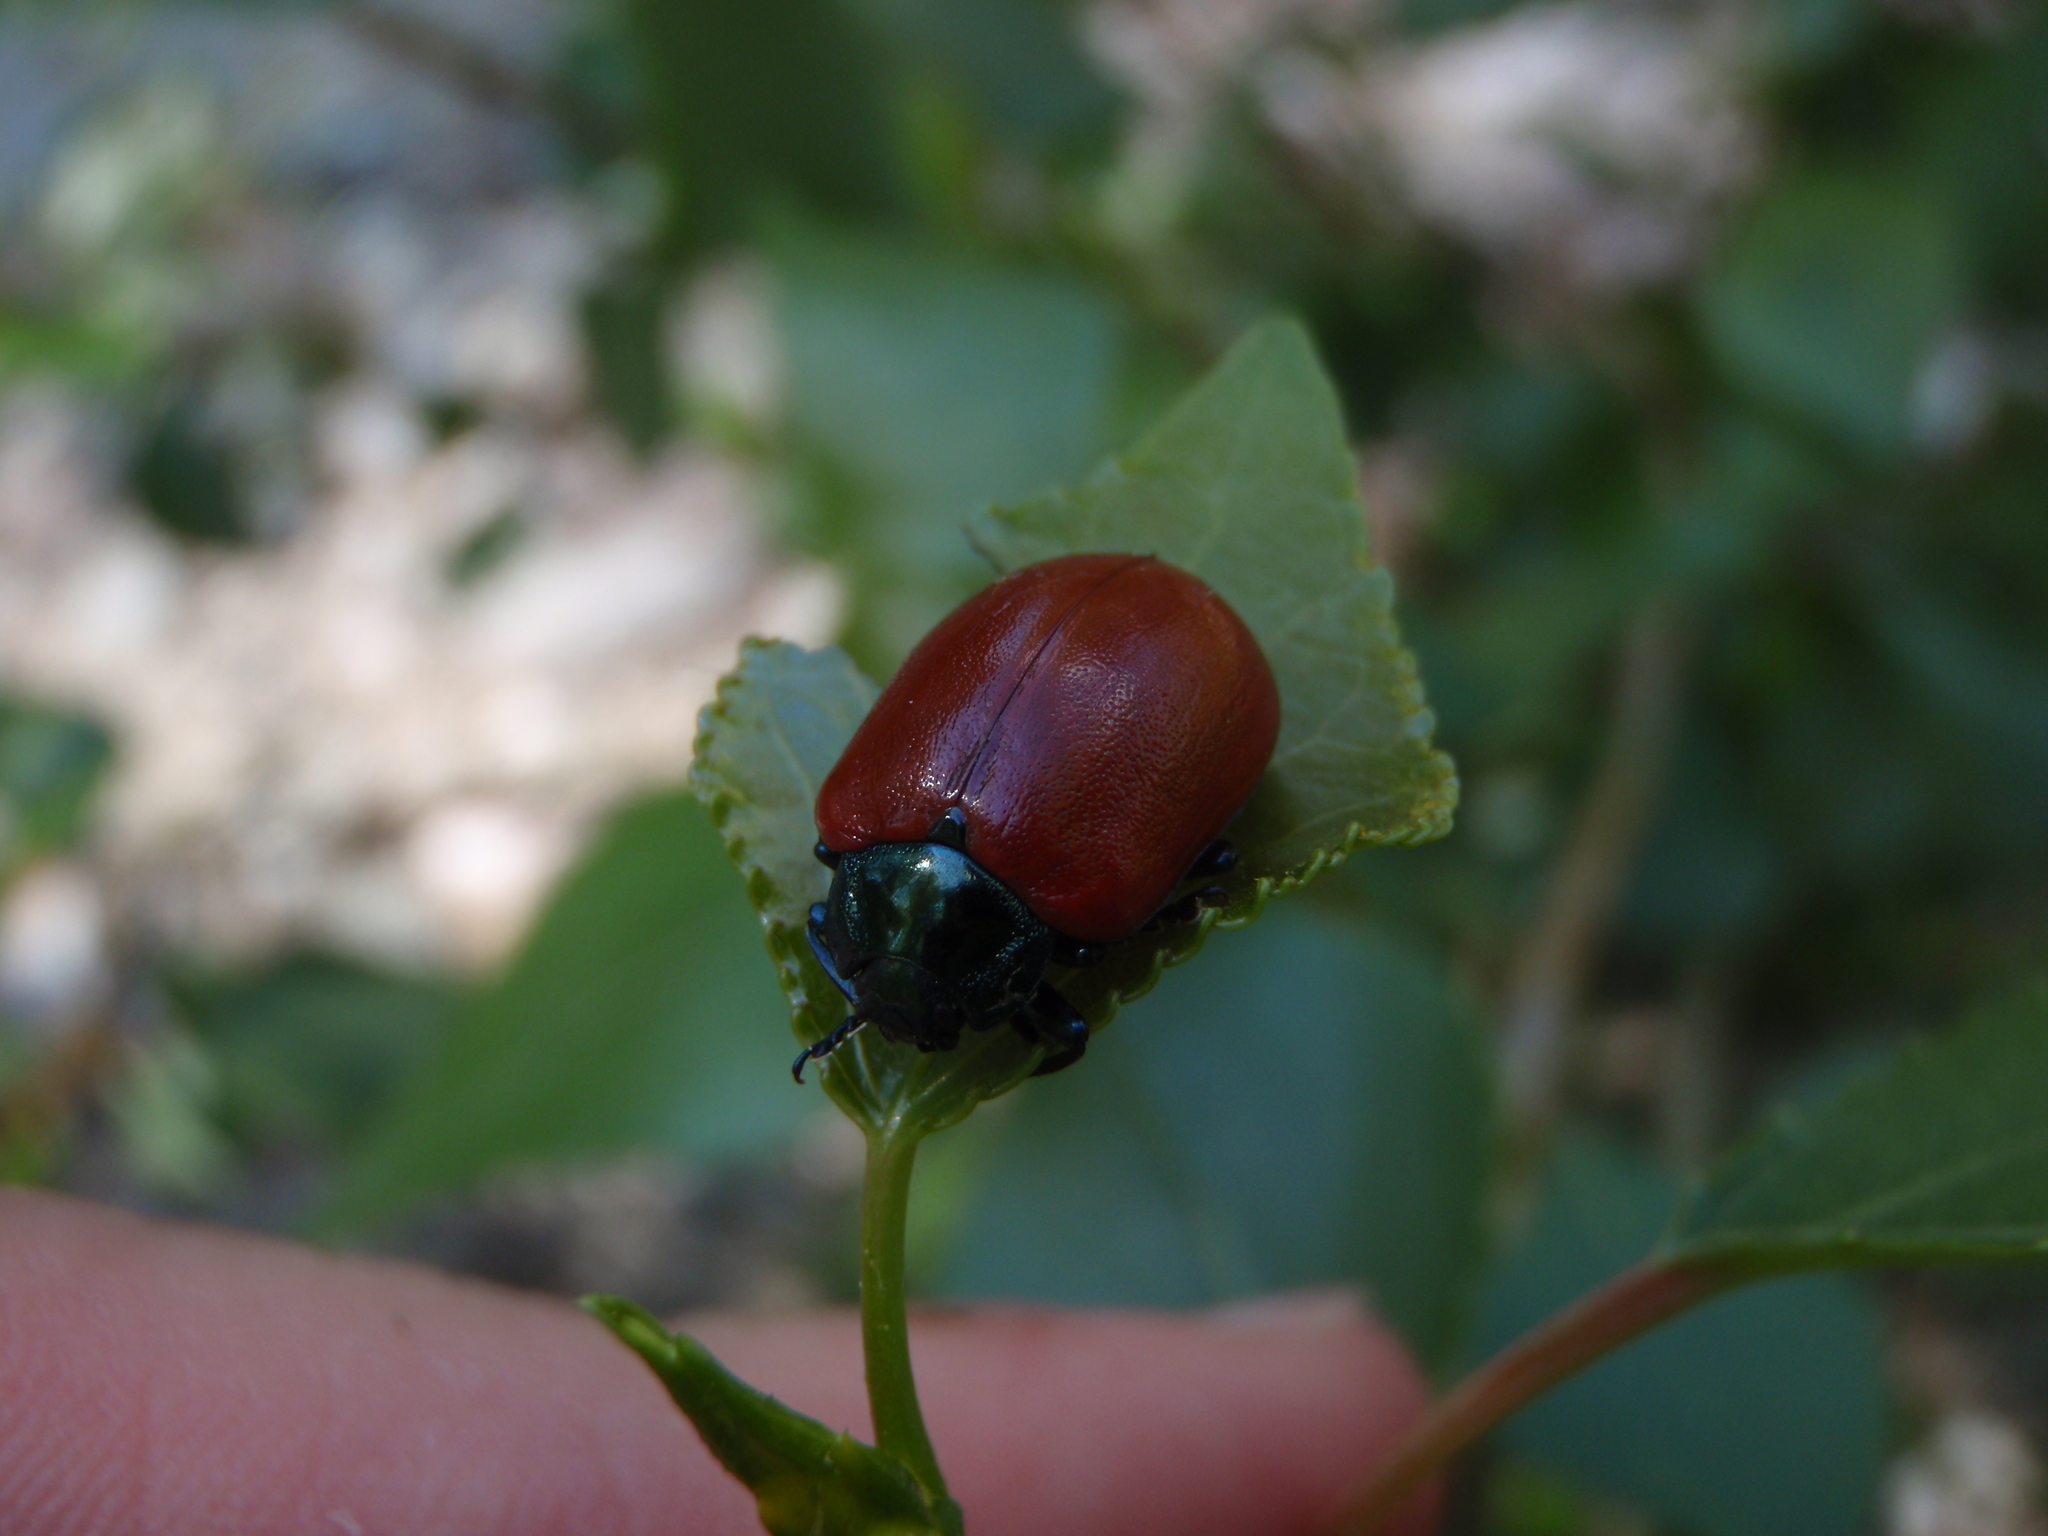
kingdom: Animalia
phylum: Arthropoda
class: Insecta
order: Coleoptera
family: Chrysomelidae
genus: Chrysomela
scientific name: Chrysomela populi
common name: Red poplar leaf beetle
